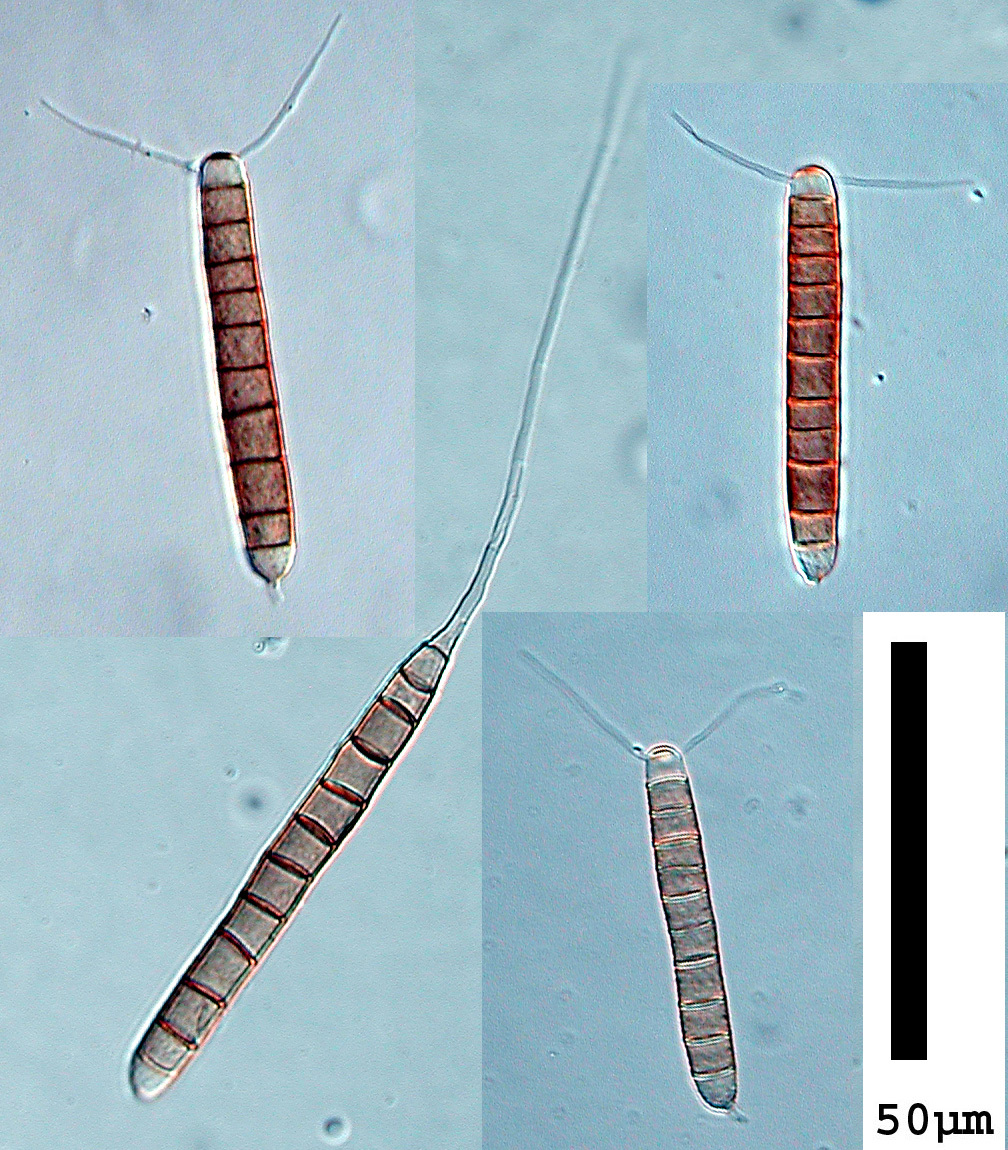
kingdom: Fungi
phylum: Ascomycota
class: Dothideomycetes
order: Pleosporales
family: Melanommataceae
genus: Camposporium
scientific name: Camposporium antennatum
